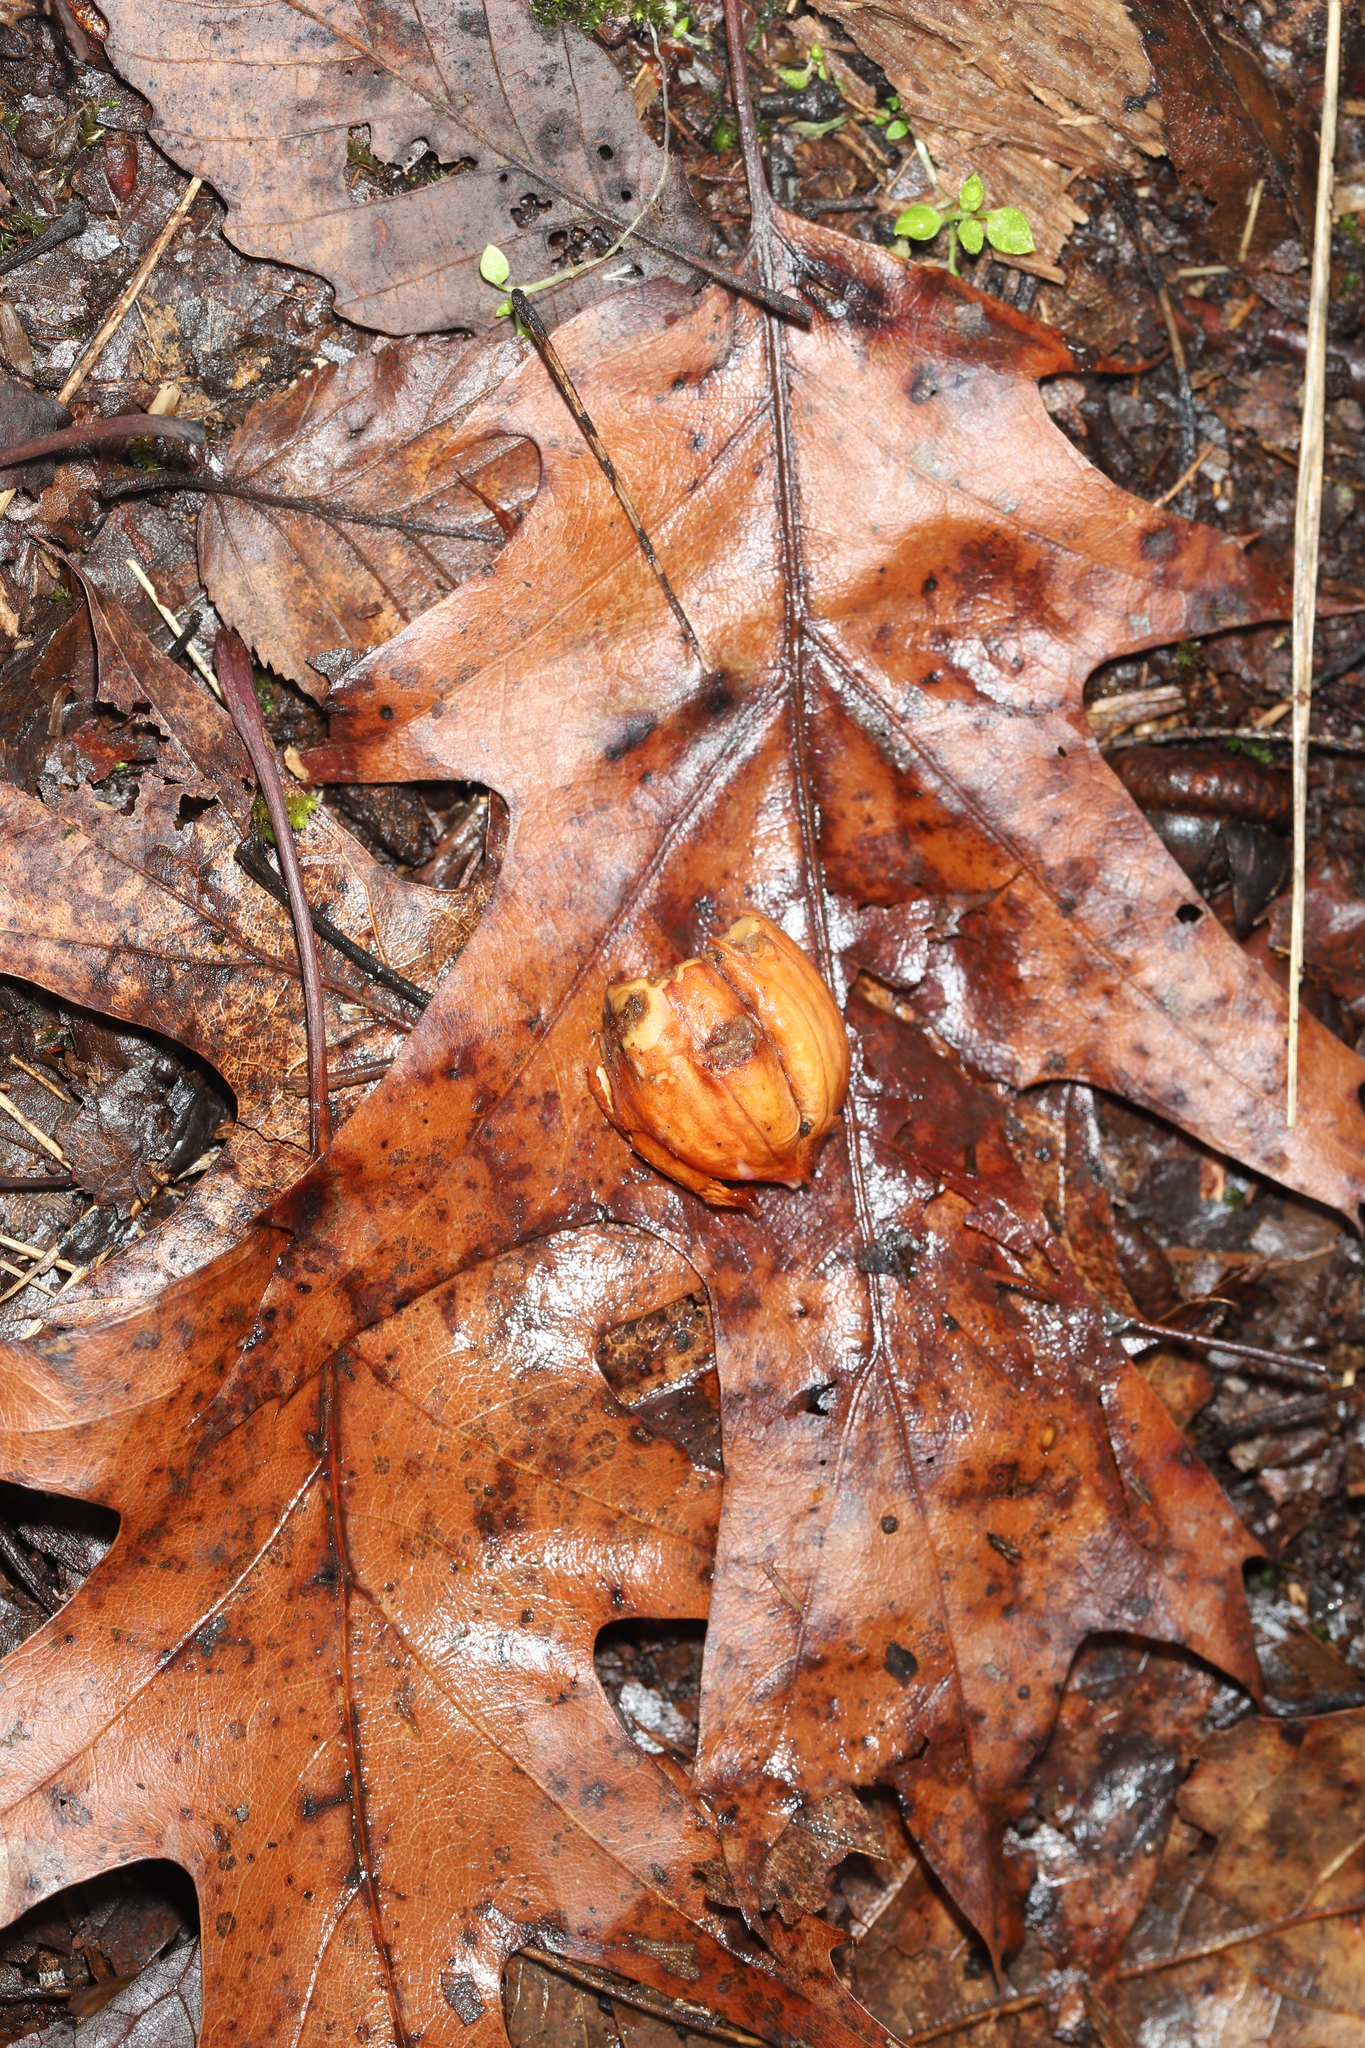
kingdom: Plantae
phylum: Tracheophyta
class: Magnoliopsida
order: Fagales
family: Fagaceae
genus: Quercus
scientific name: Quercus rubra
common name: Red oak
